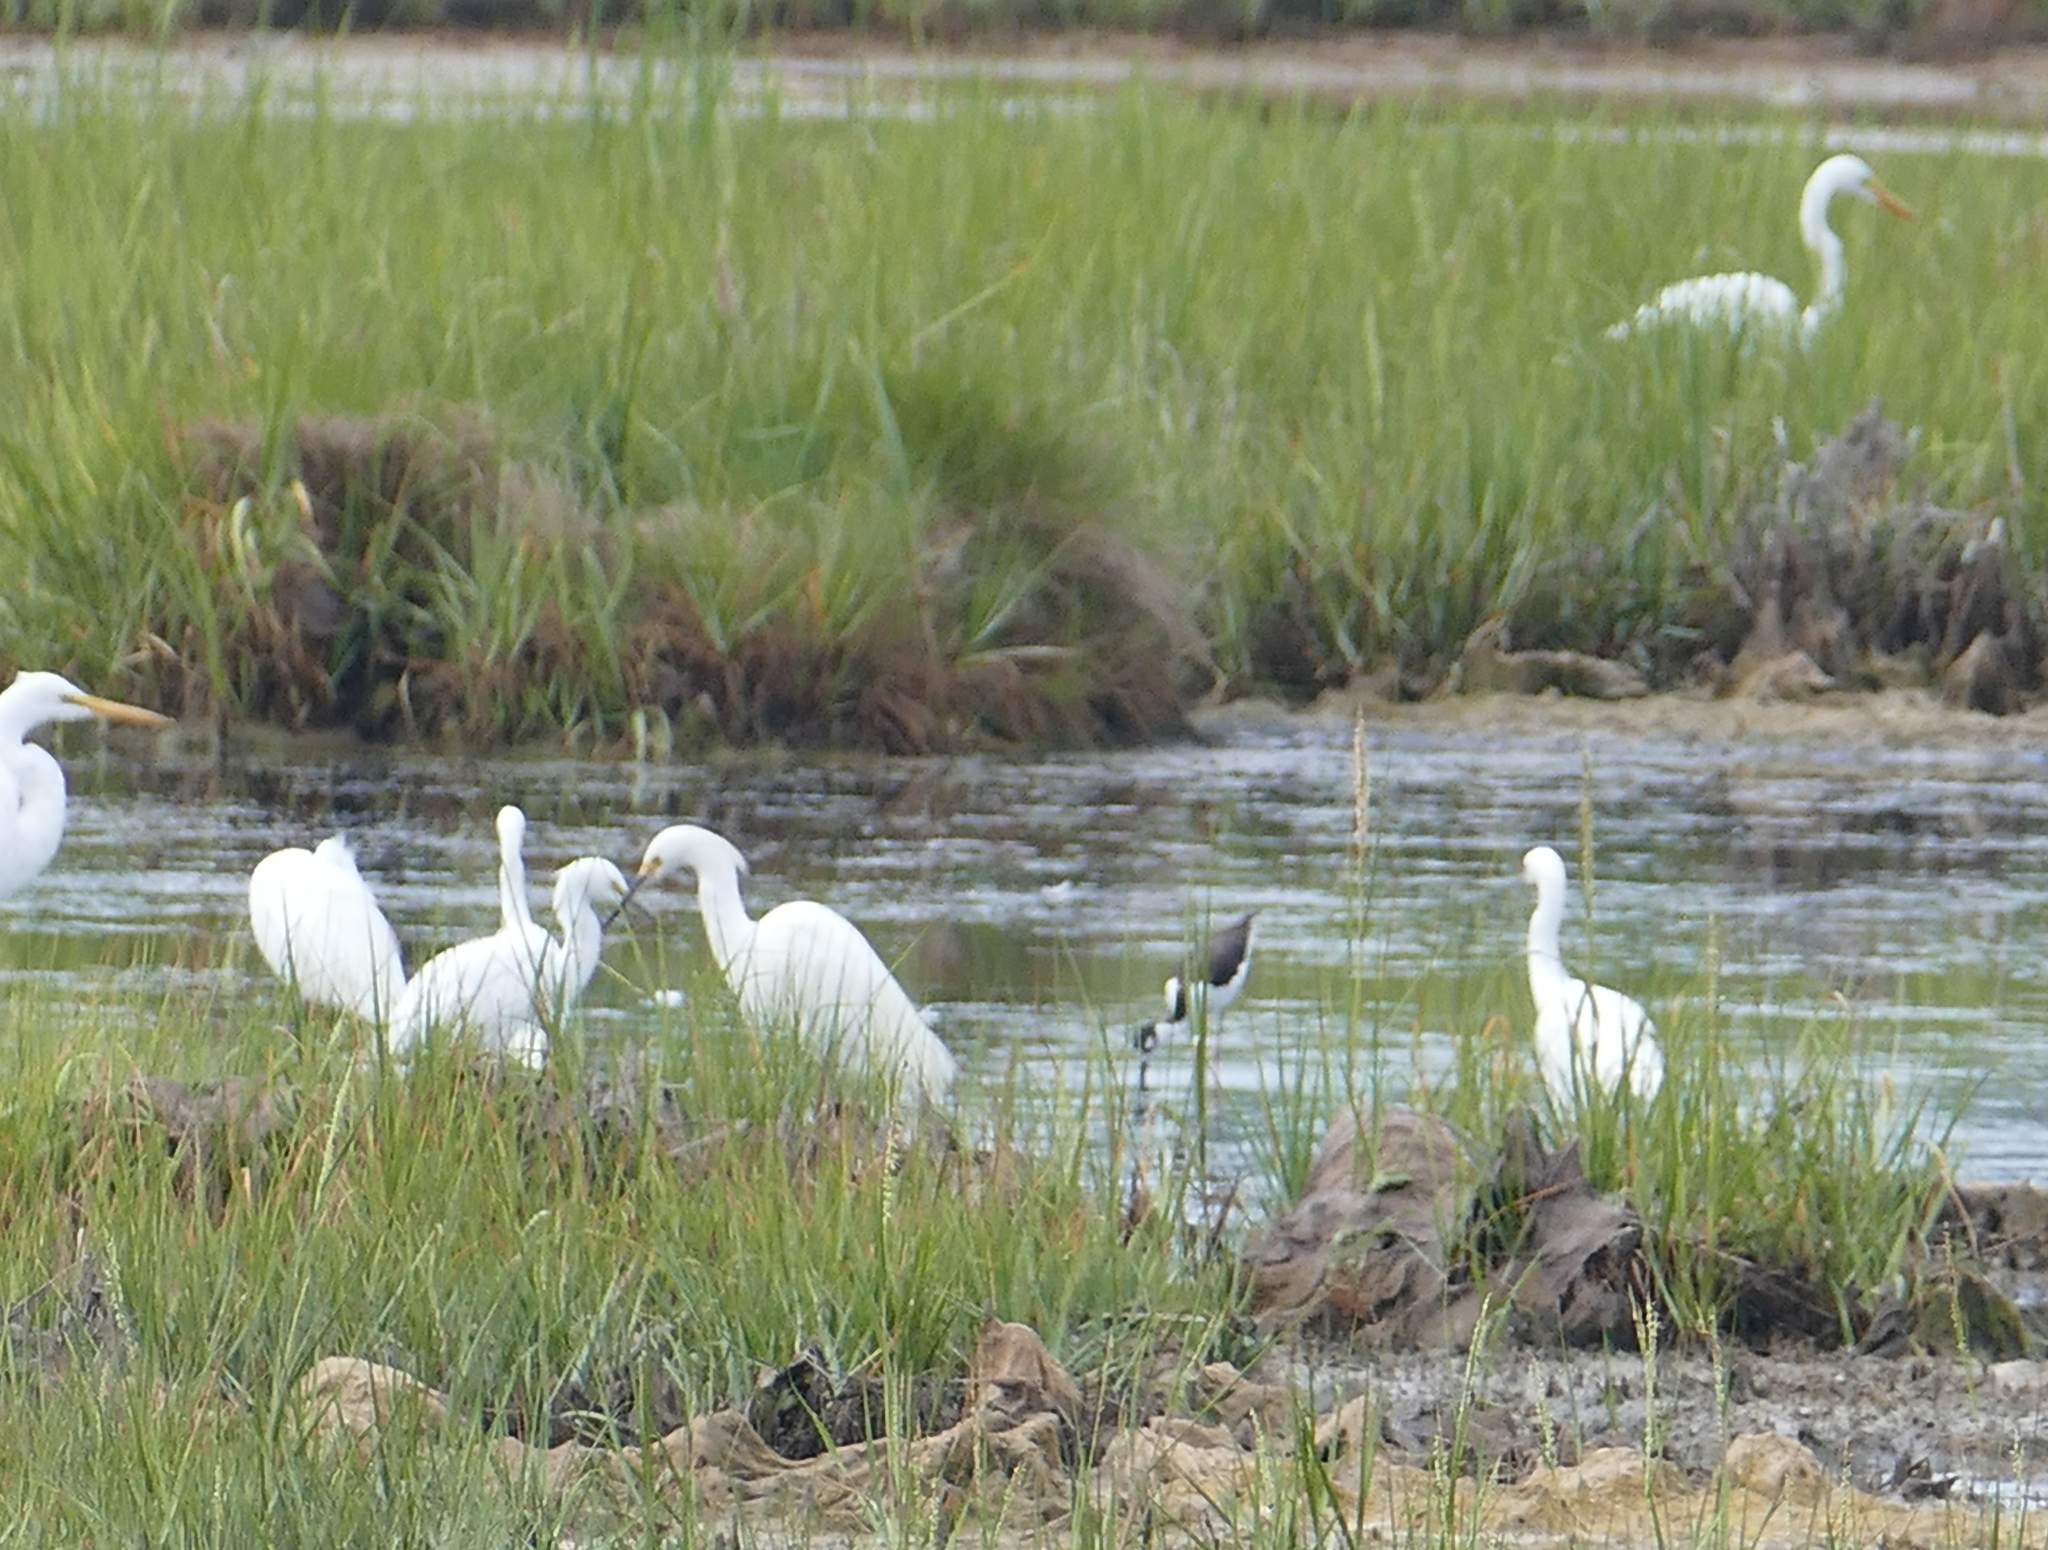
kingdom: Animalia
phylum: Chordata
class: Aves
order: Pelecaniformes
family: Ardeidae
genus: Egretta
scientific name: Egretta thula
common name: Snowy egret
